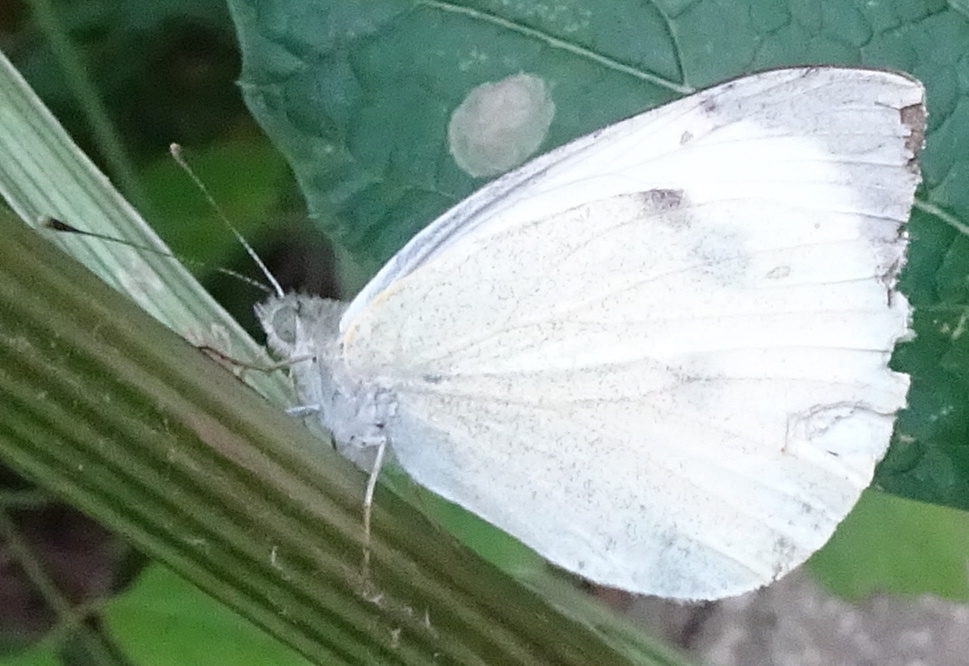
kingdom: Animalia
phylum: Arthropoda
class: Insecta
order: Lepidoptera
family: Pieridae
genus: Pieris
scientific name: Pieris brassicae
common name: Large white
